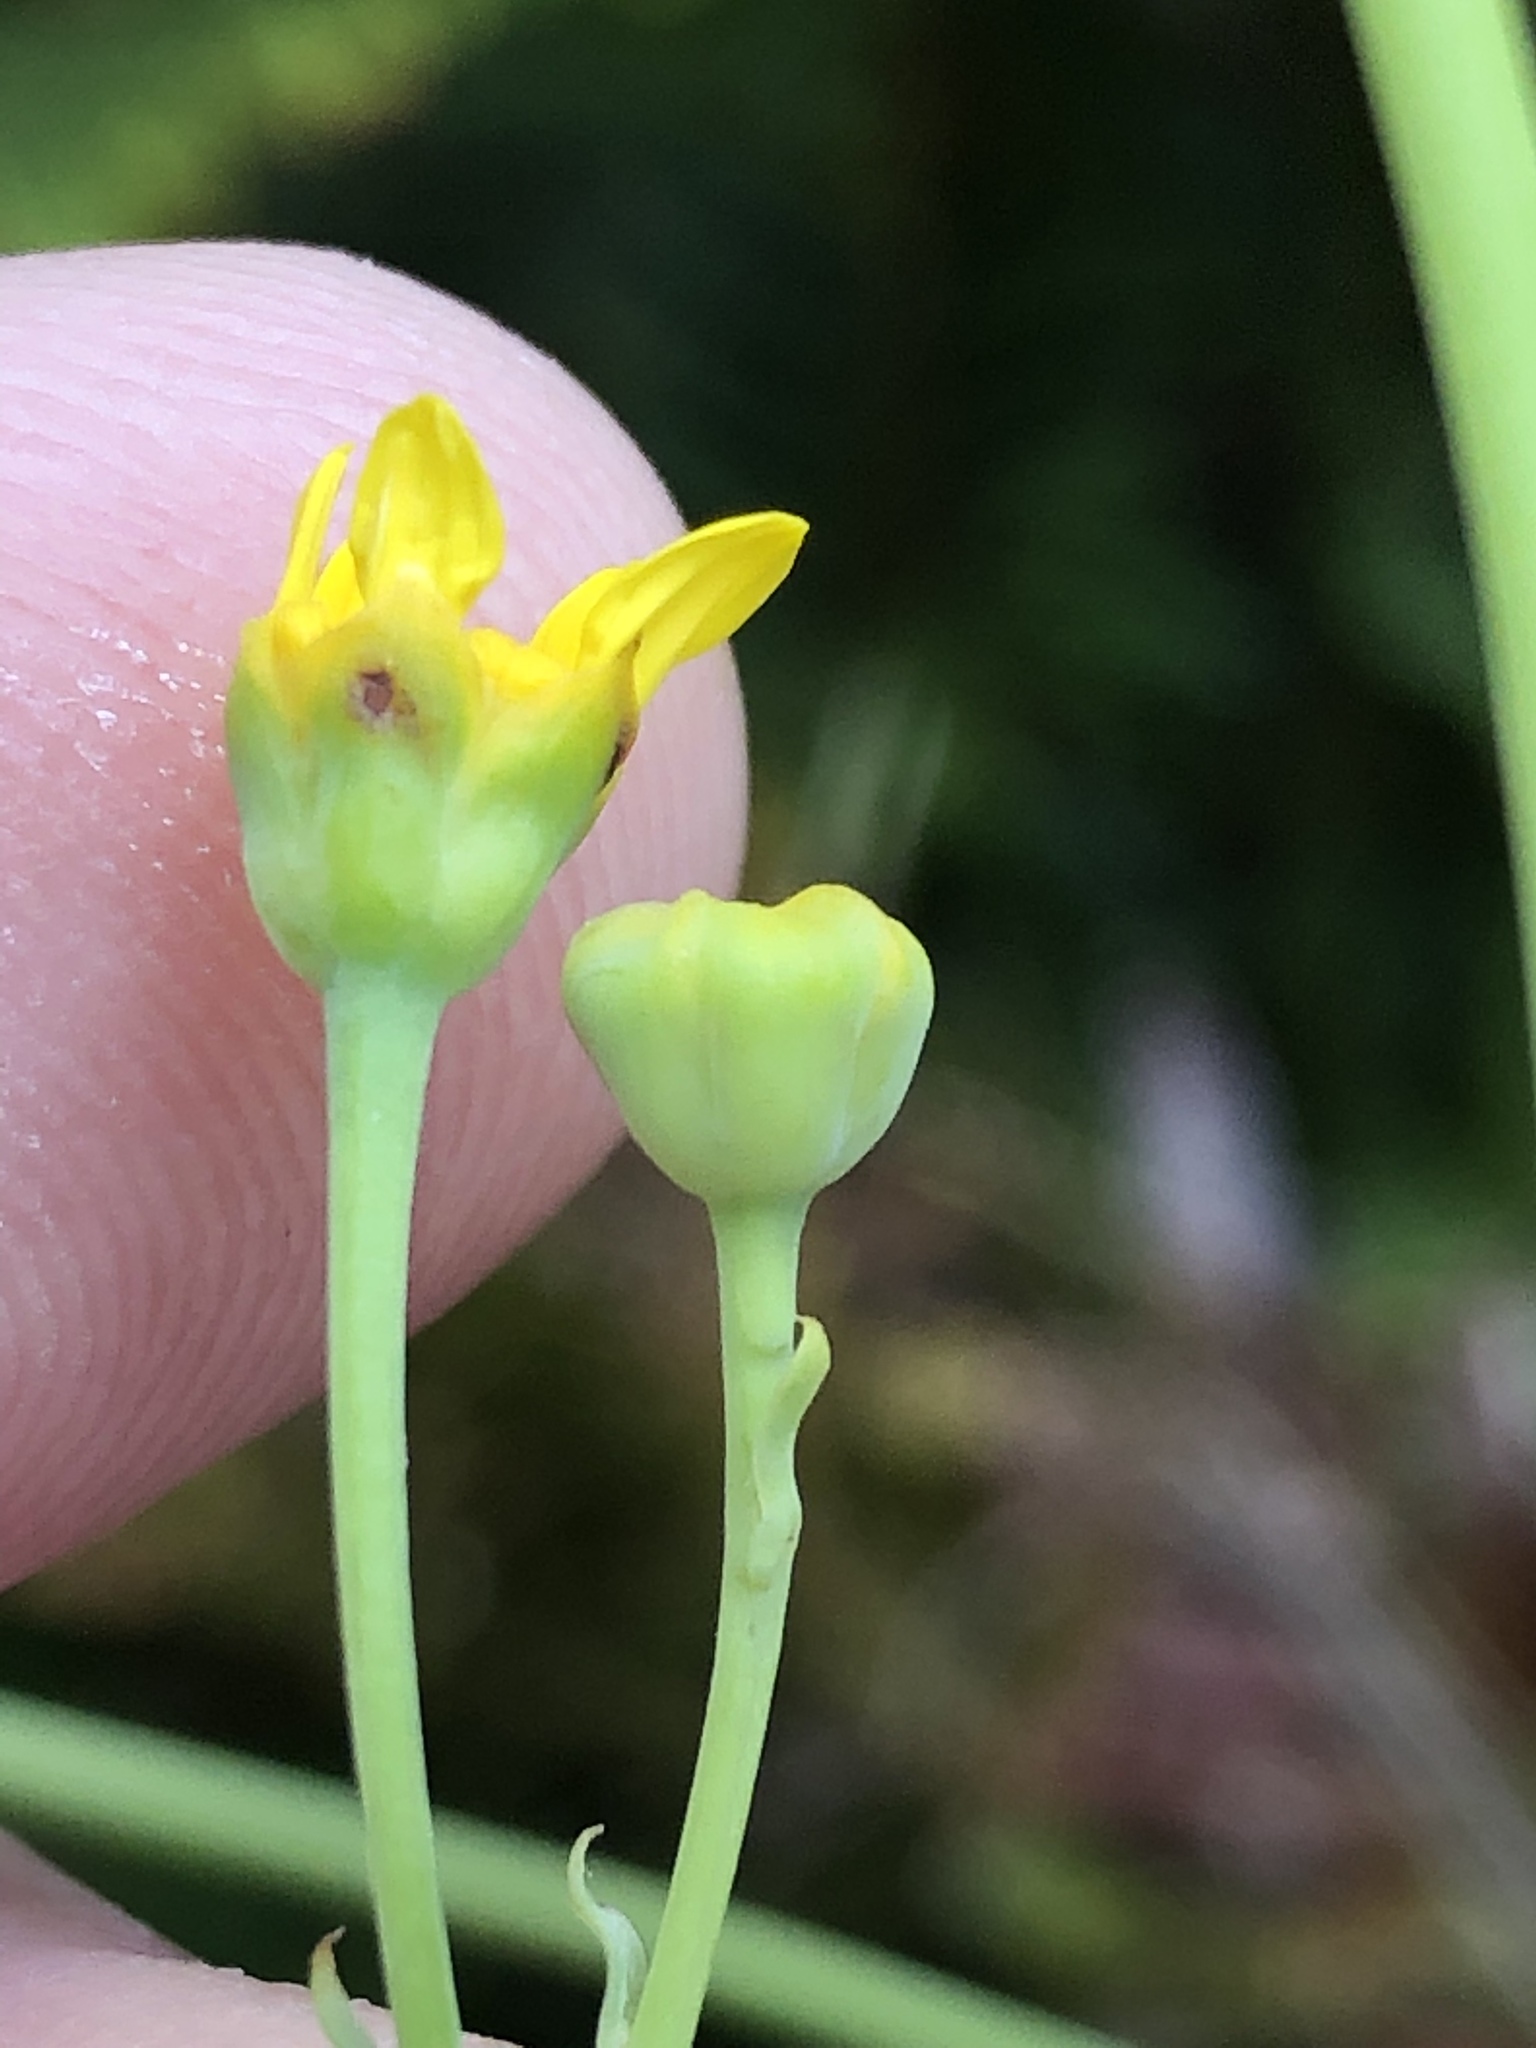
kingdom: Plantae
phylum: Tracheophyta
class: Magnoliopsida
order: Asterales
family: Asteraceae
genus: Othonna
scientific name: Othonna quinquedentata
